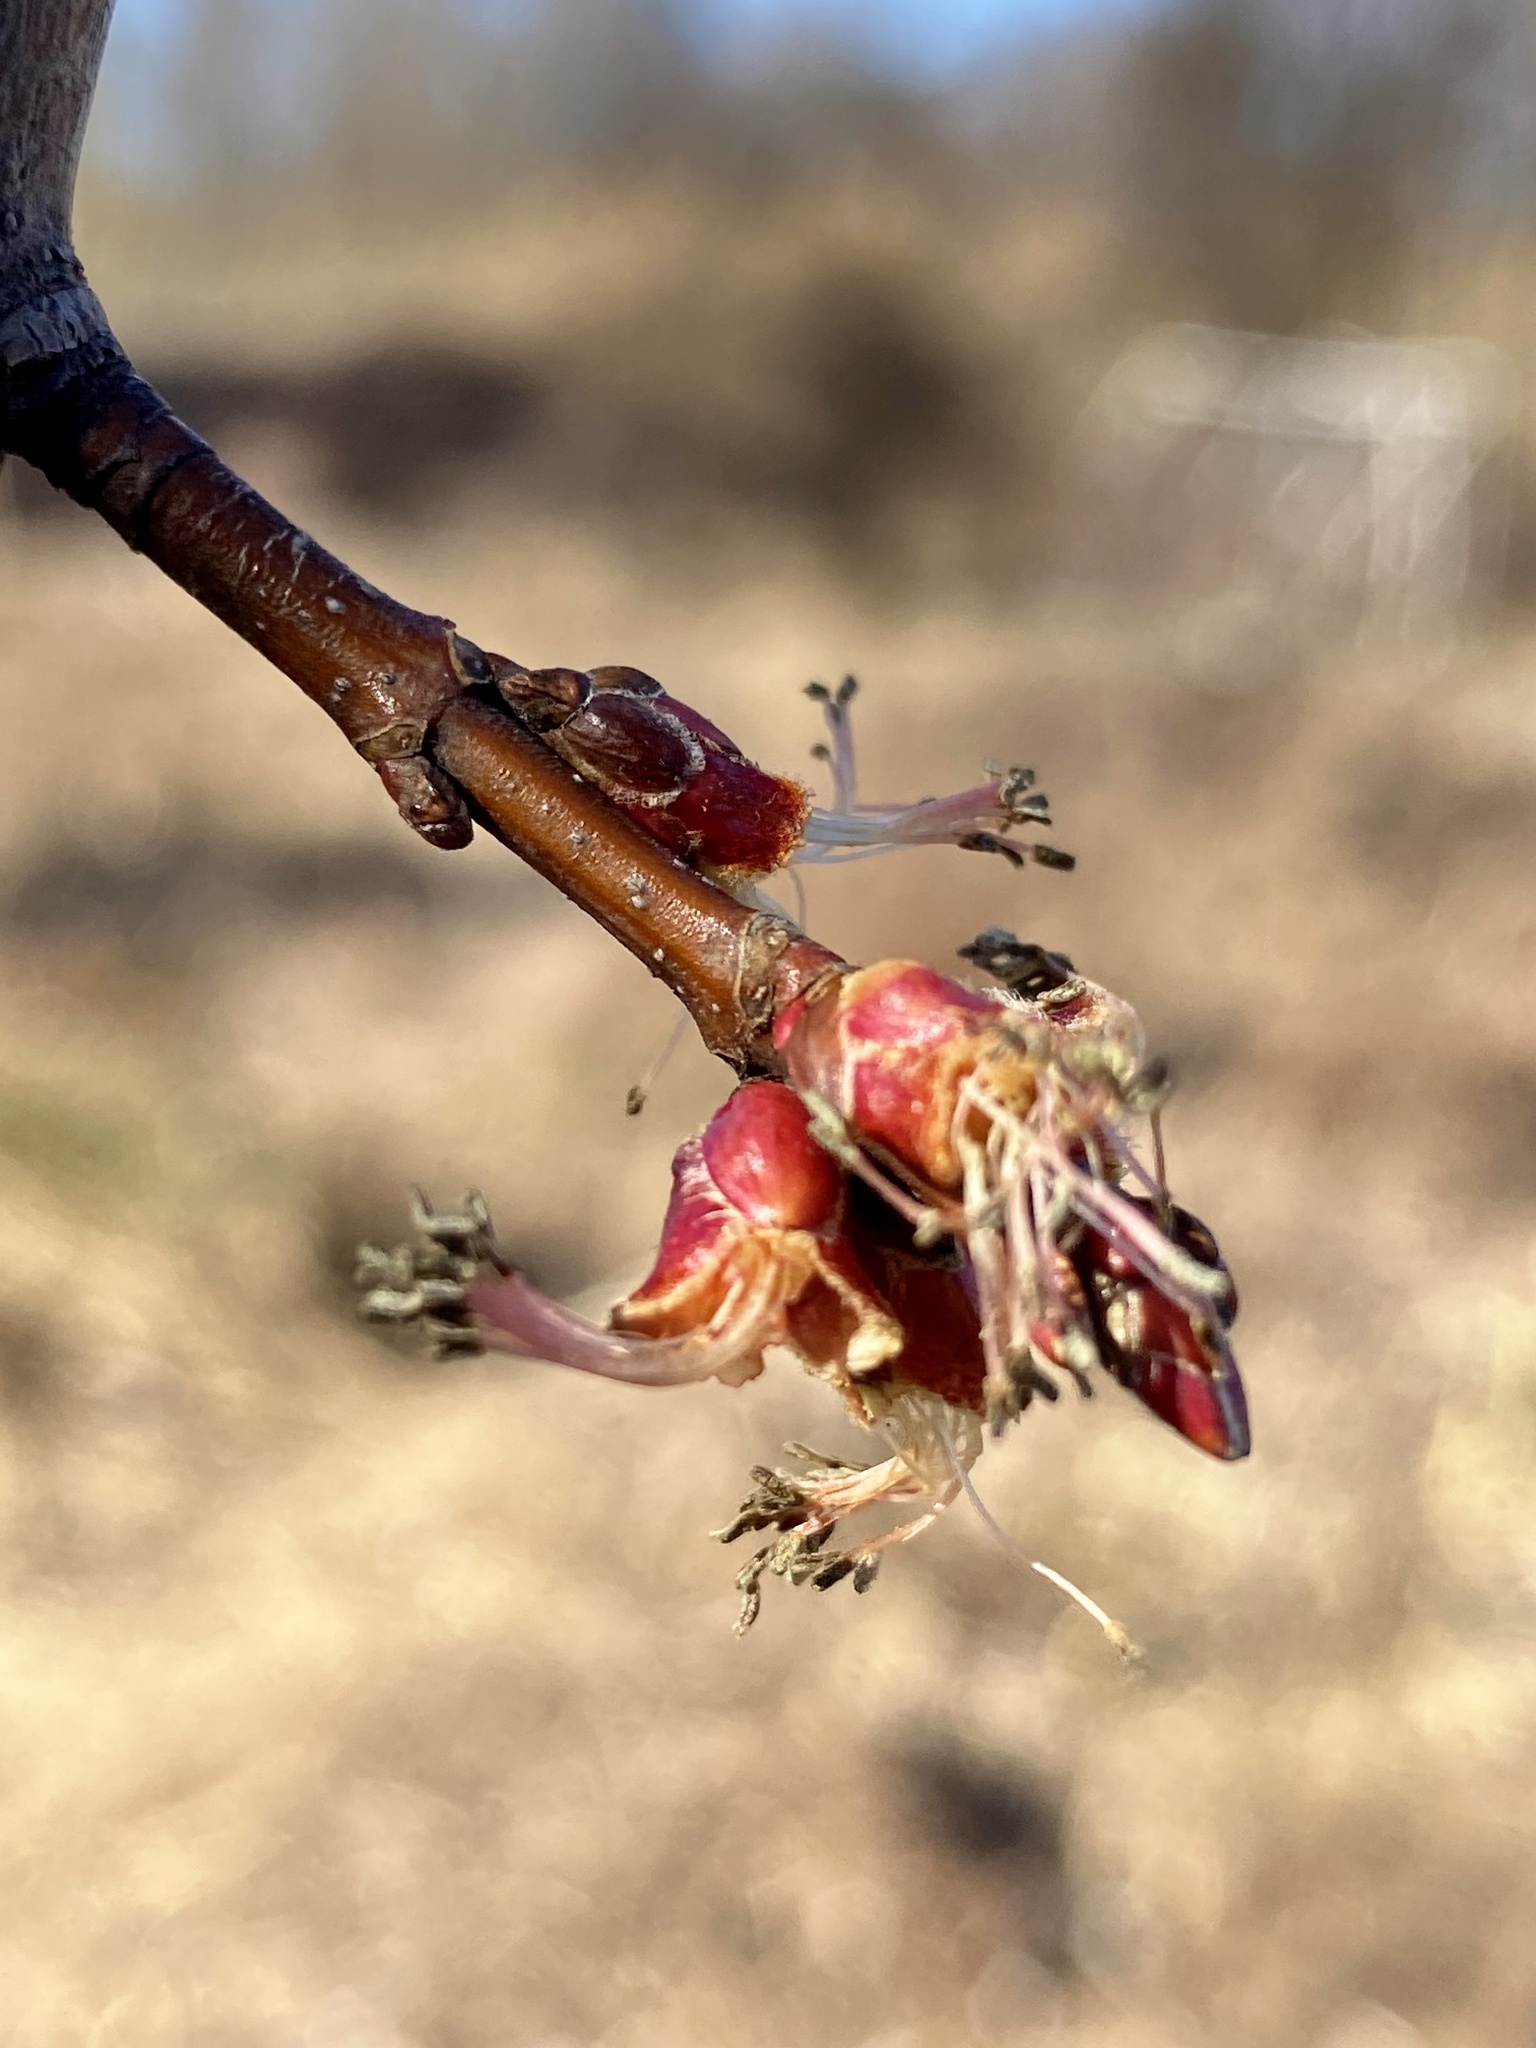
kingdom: Plantae
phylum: Tracheophyta
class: Magnoliopsida
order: Sapindales
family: Sapindaceae
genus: Acer
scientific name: Acer saccharinum
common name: Silver maple
